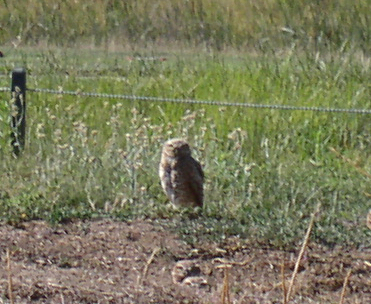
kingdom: Animalia
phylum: Chordata
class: Aves
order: Strigiformes
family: Strigidae
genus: Athene
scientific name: Athene cunicularia
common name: Burrowing owl
